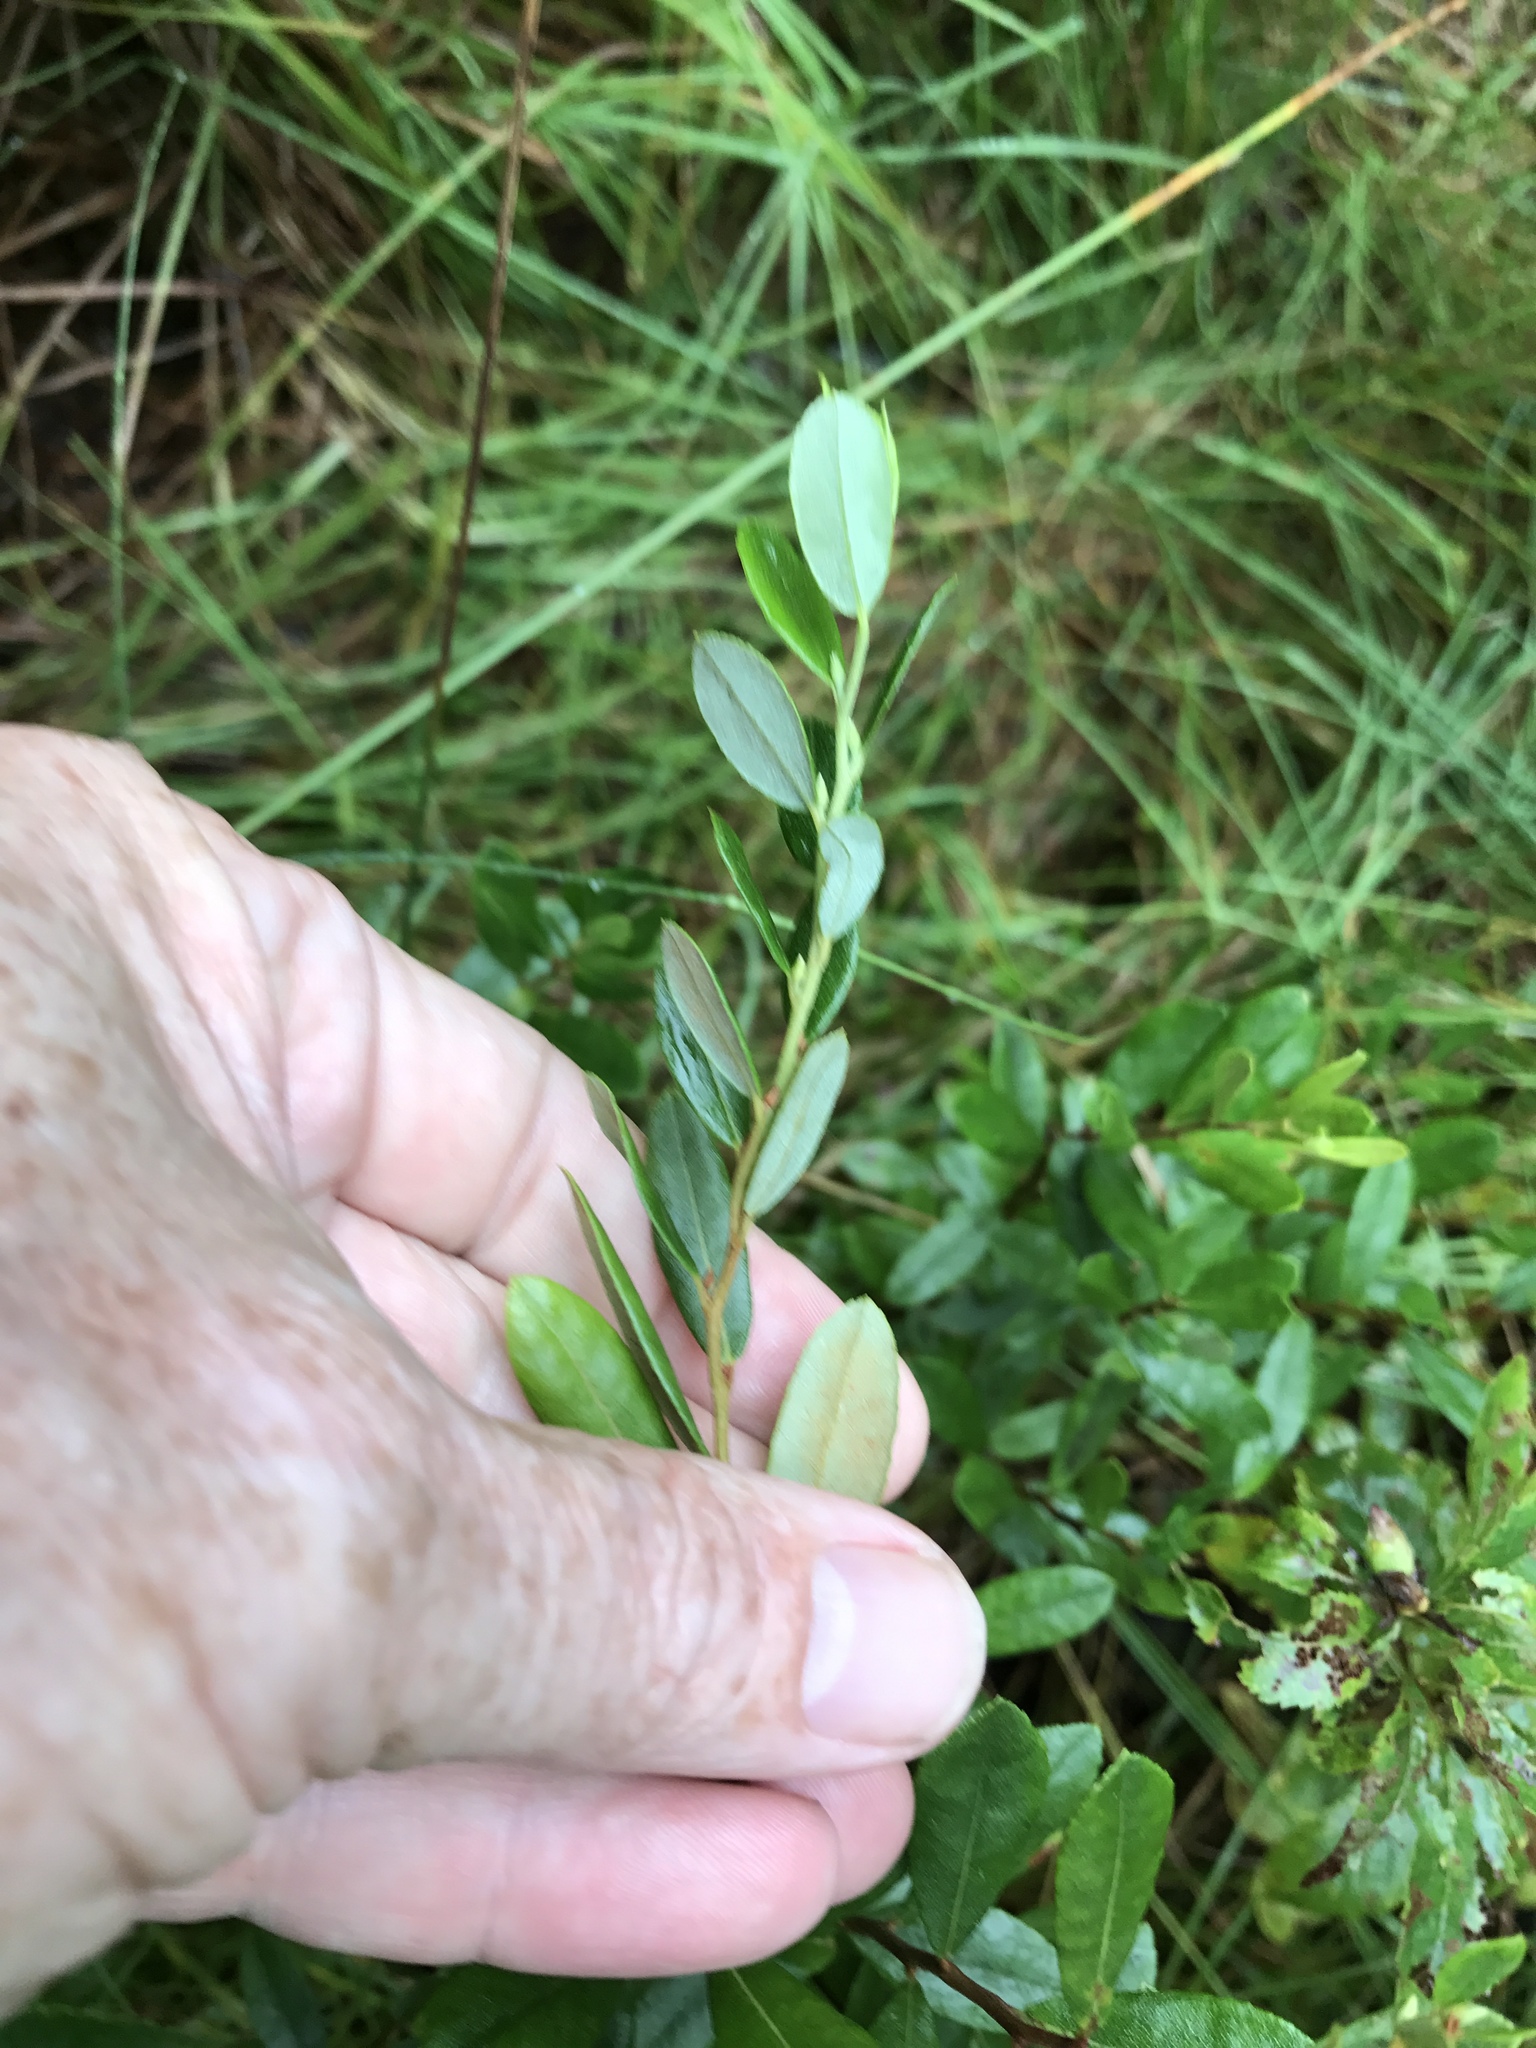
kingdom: Plantae
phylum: Tracheophyta
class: Magnoliopsida
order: Ericales
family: Ericaceae
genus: Chamaedaphne
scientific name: Chamaedaphne calyculata
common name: Leatherleaf
